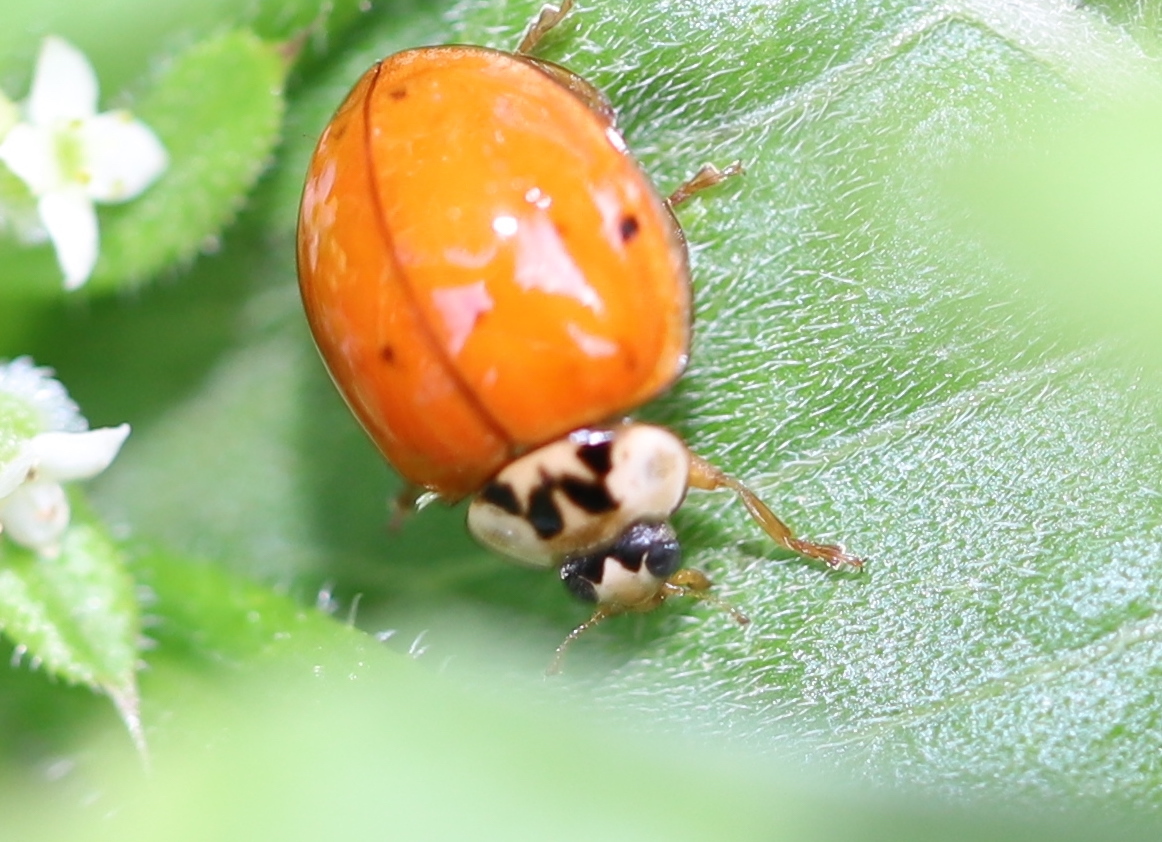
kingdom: Animalia
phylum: Arthropoda
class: Insecta
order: Coleoptera
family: Coccinellidae
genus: Harmonia
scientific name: Harmonia axyridis
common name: Harlequin ladybird
